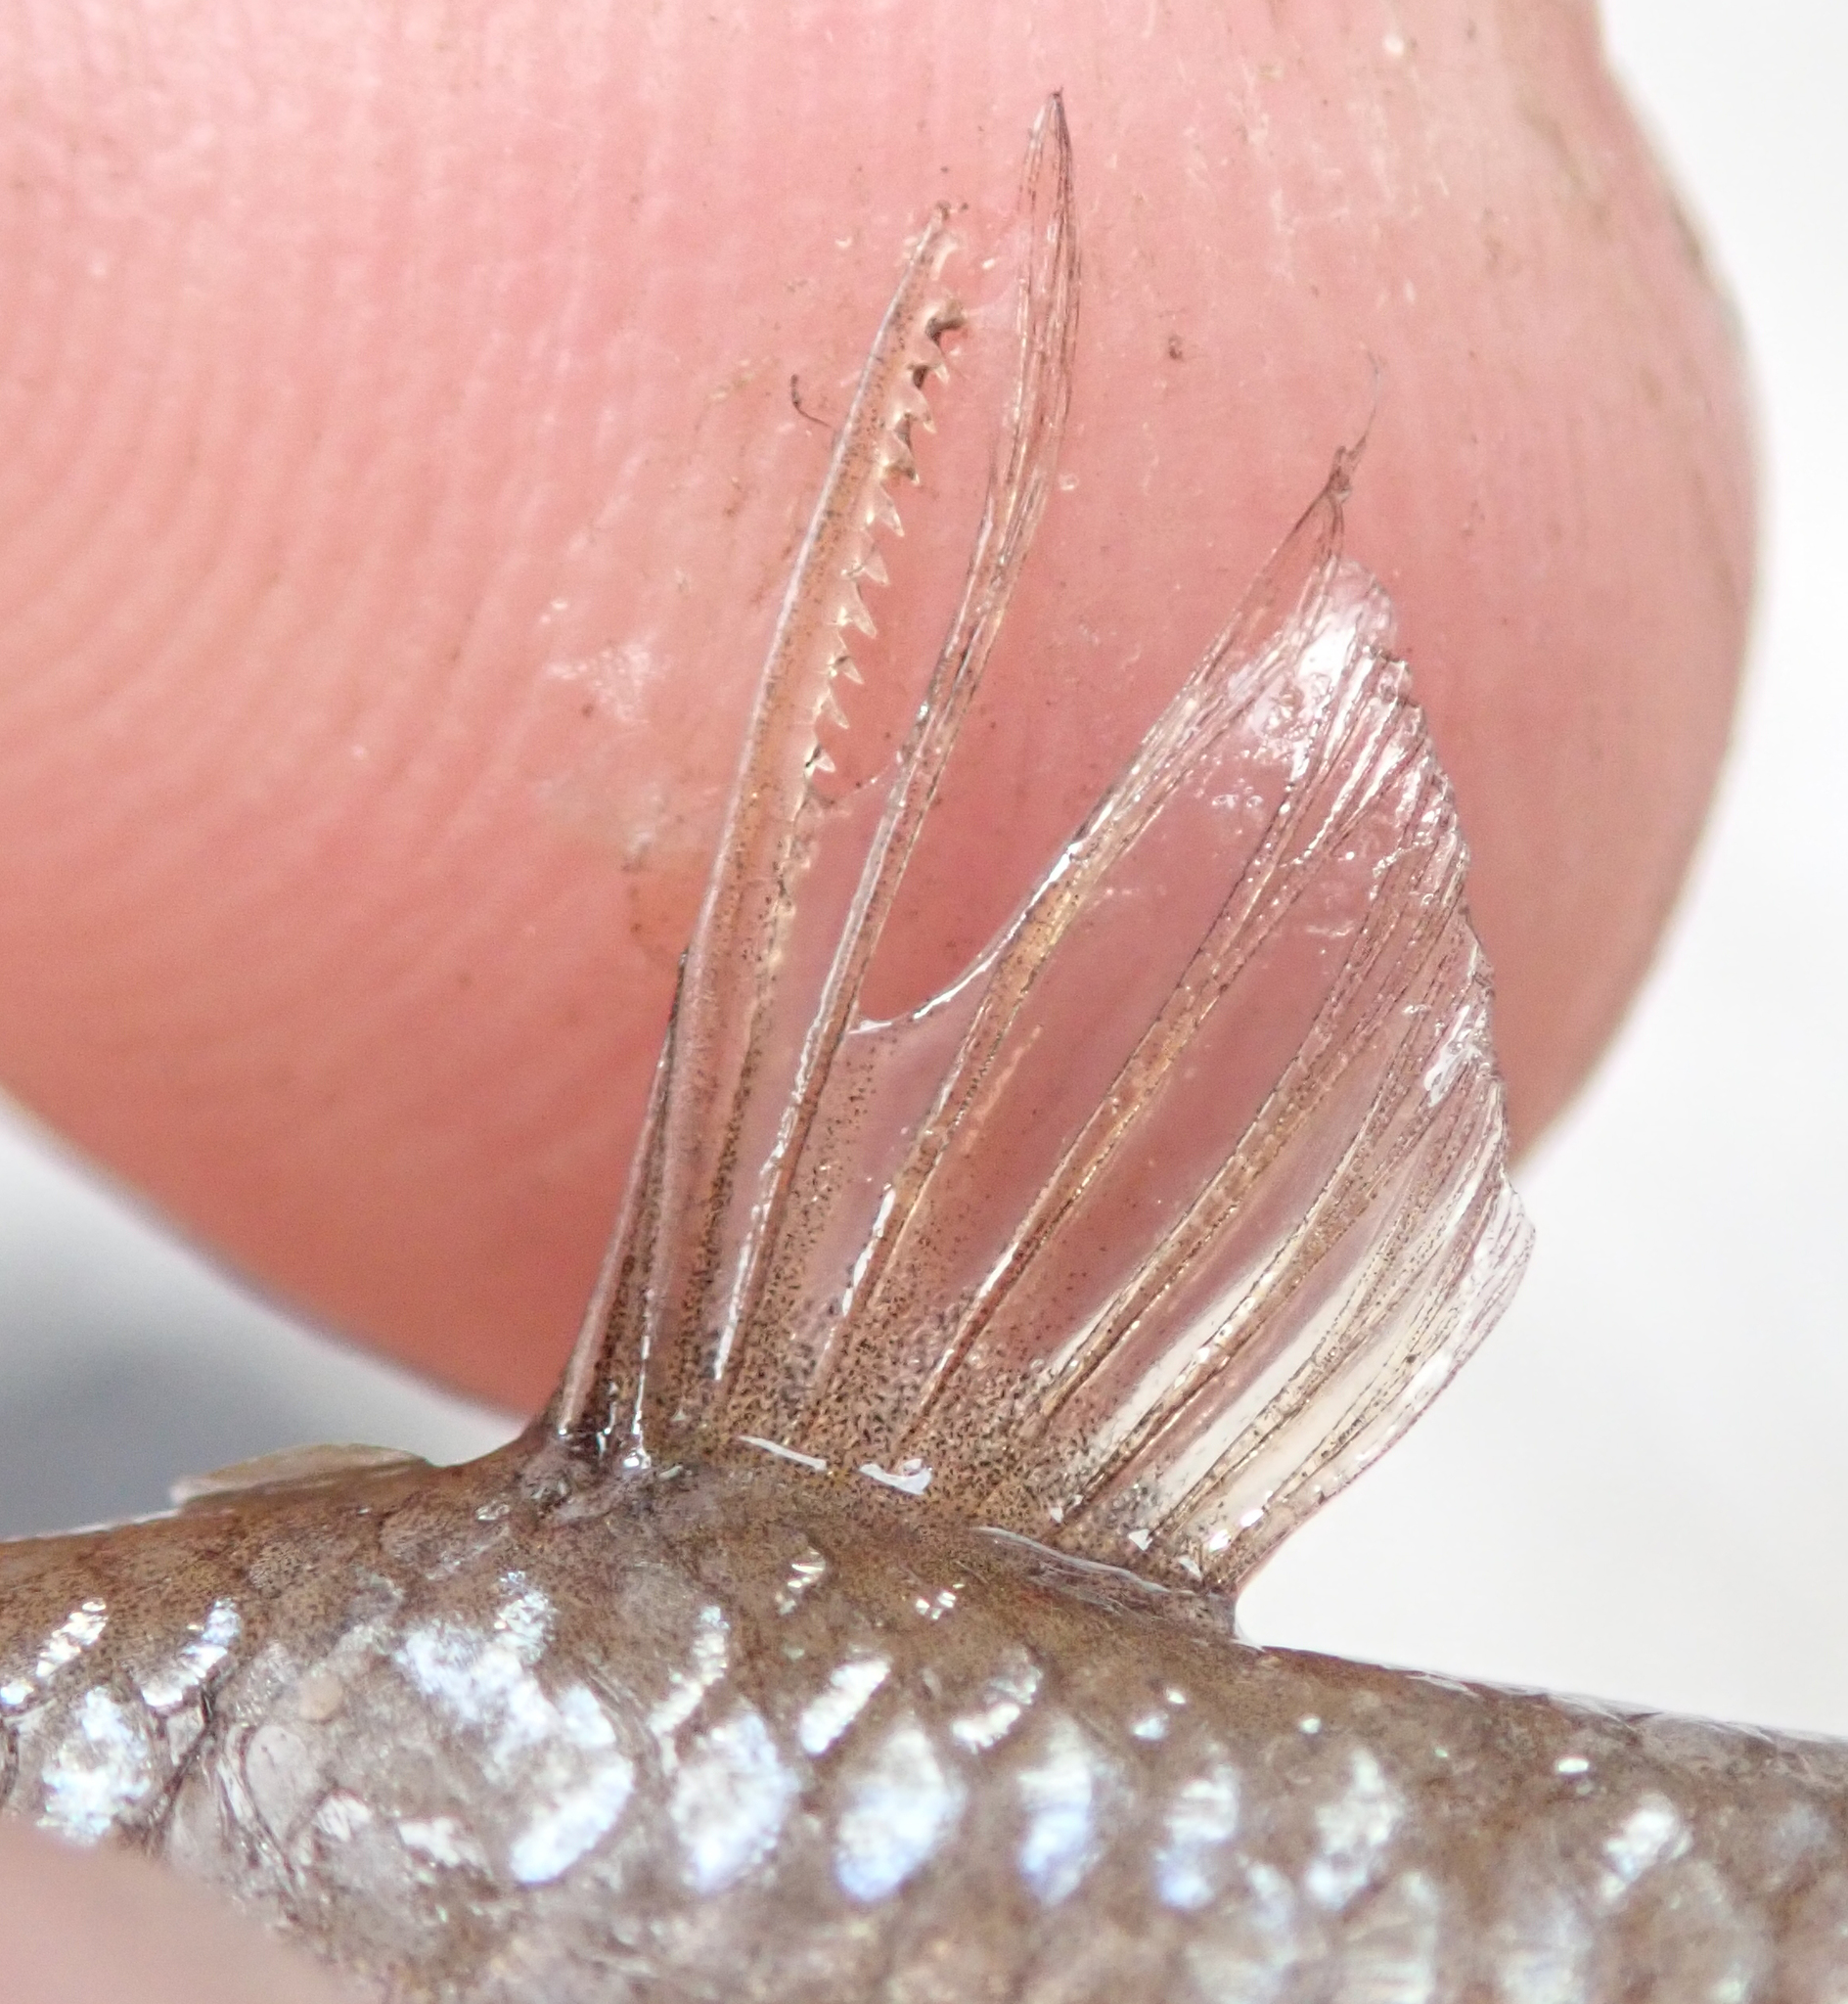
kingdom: Animalia
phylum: Chordata
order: Cypriniformes
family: Cyprinidae
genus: Enteromius
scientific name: Enteromius paludinosus
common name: Straightfin barb
